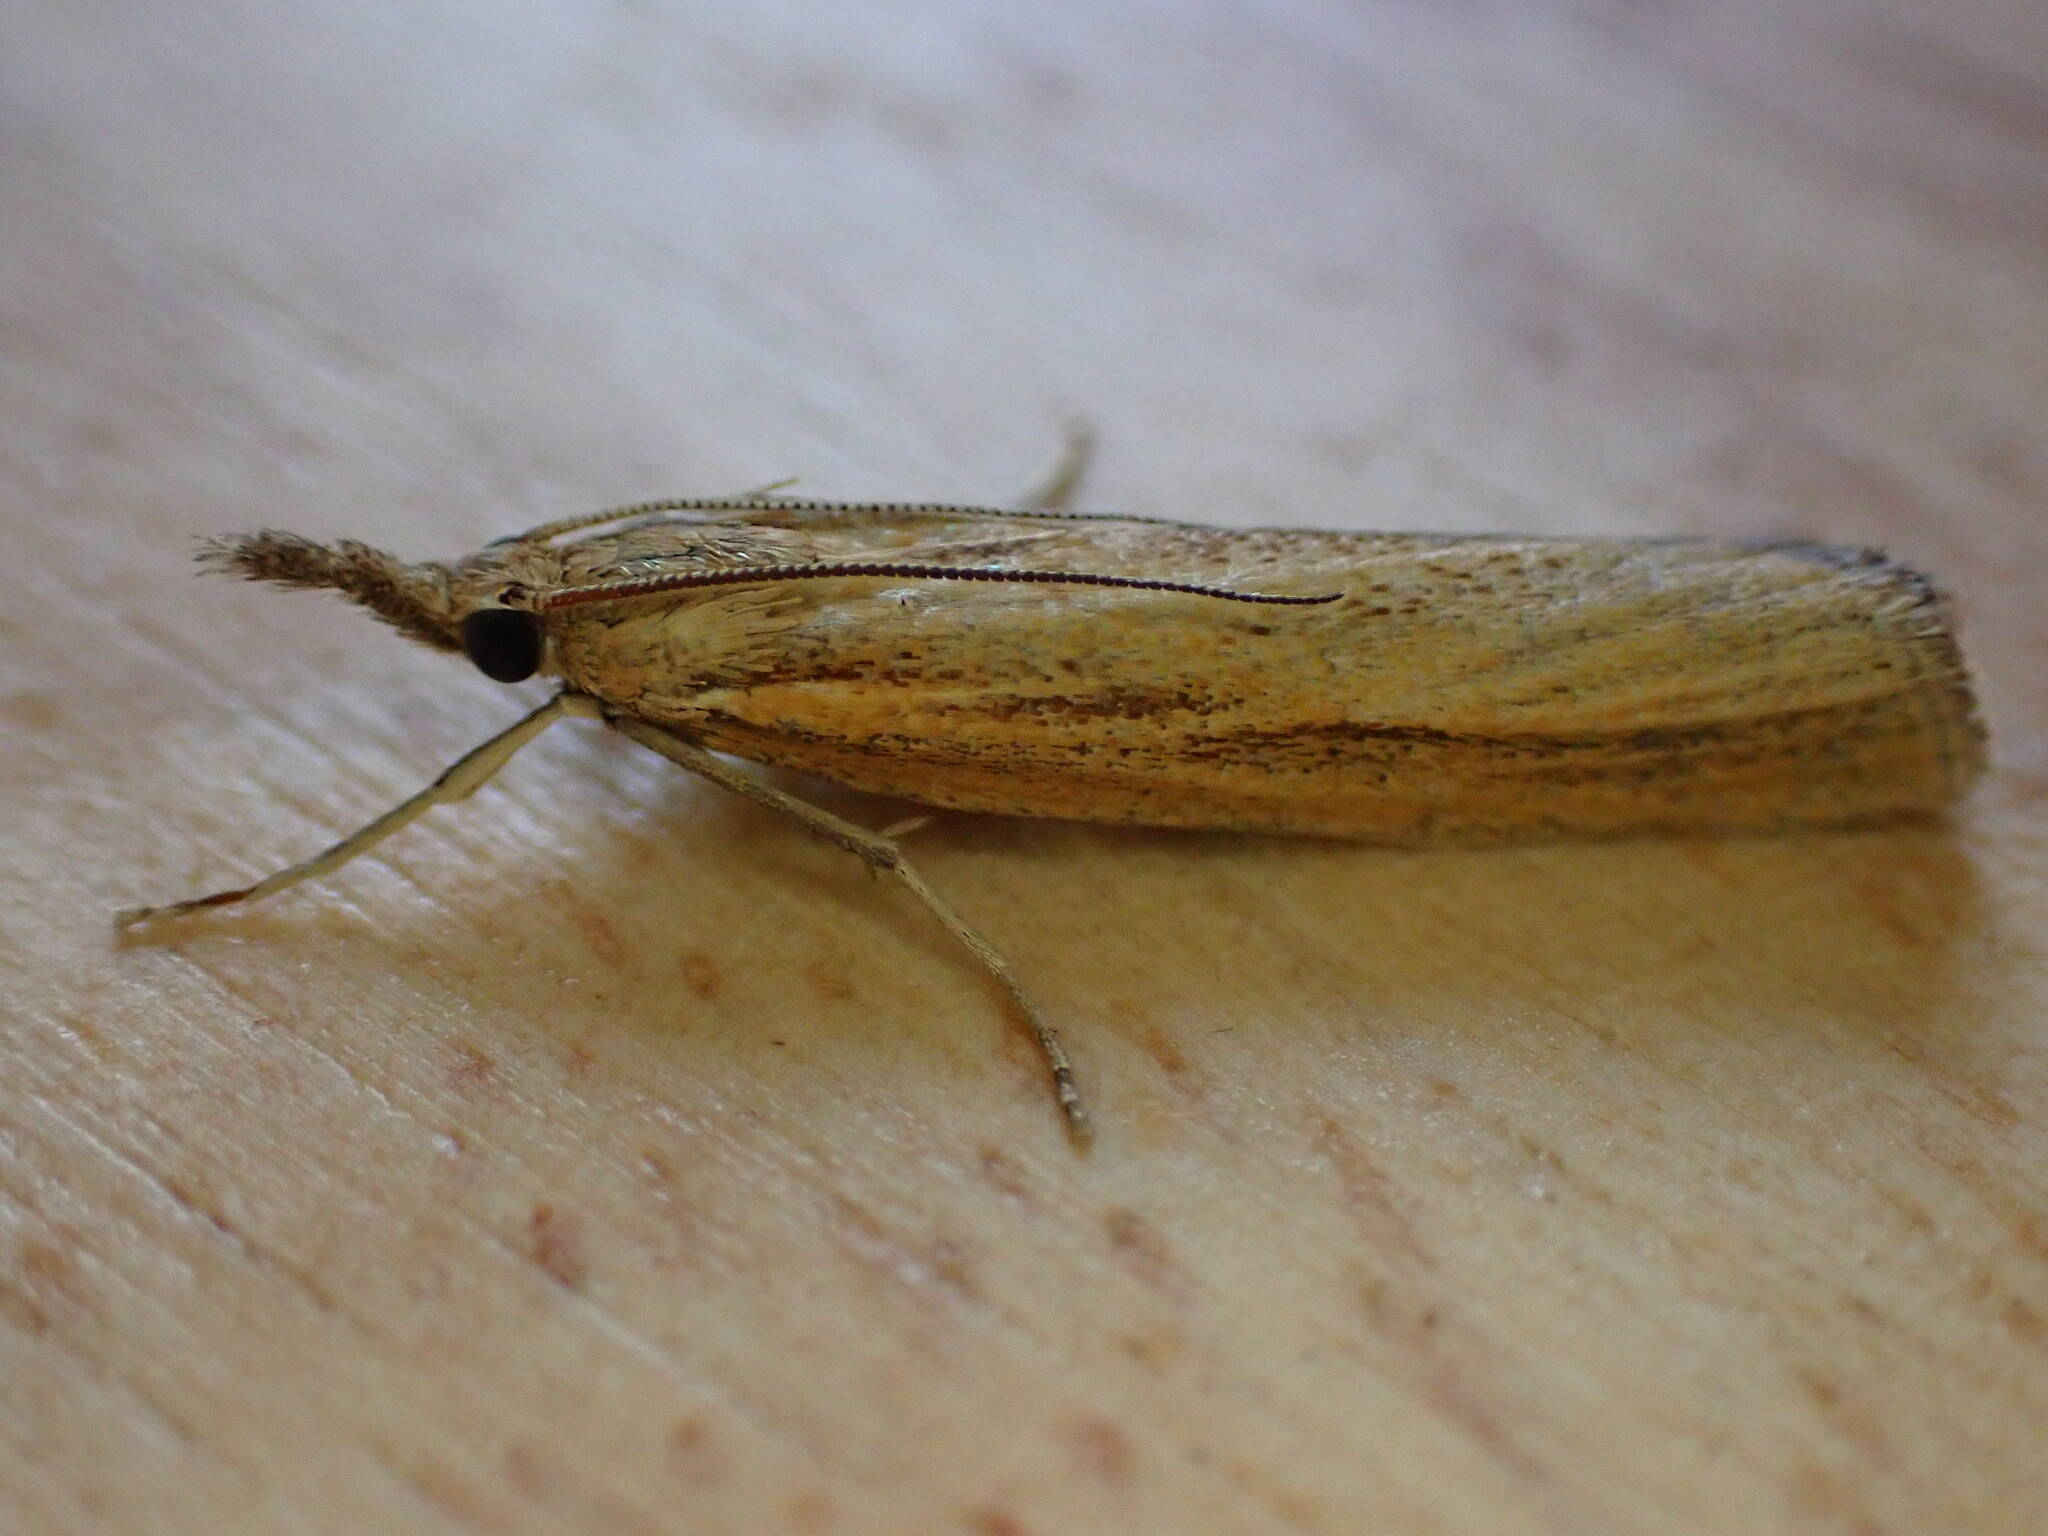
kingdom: Animalia
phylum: Arthropoda
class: Insecta
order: Lepidoptera
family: Crambidae
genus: Agriphila
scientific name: Agriphila tristellus
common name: Common grass-veneer
